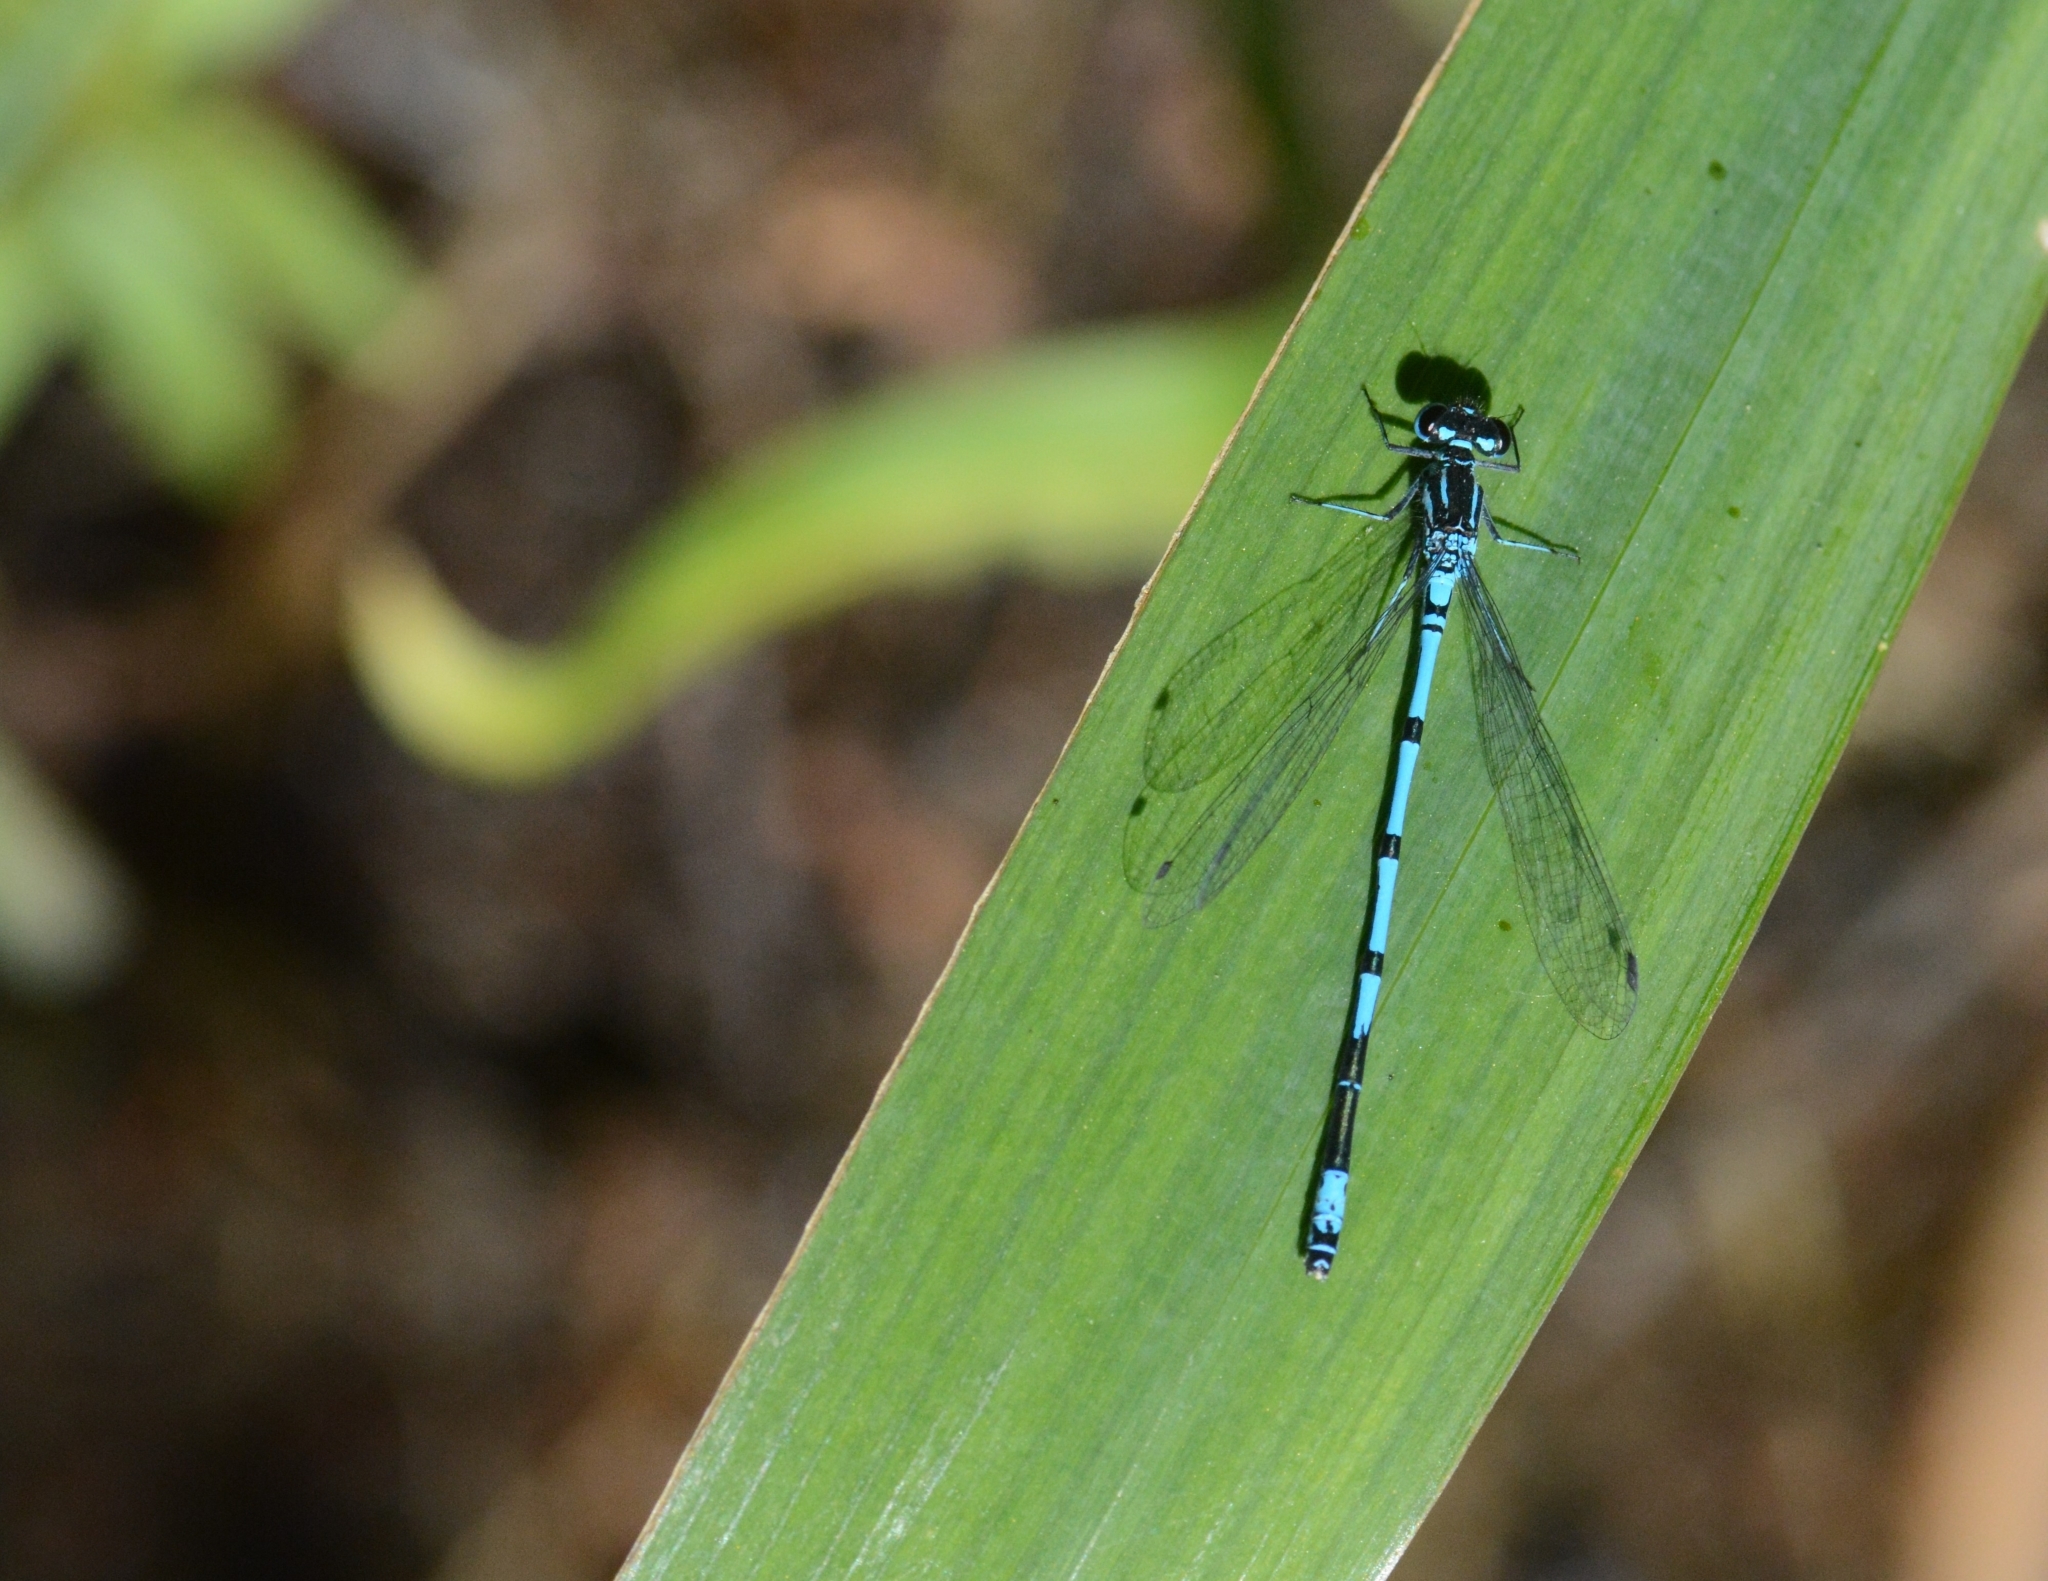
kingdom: Animalia
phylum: Arthropoda
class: Insecta
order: Odonata
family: Coenagrionidae
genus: Coenagrion
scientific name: Coenagrion puella
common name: Azure damselfly
